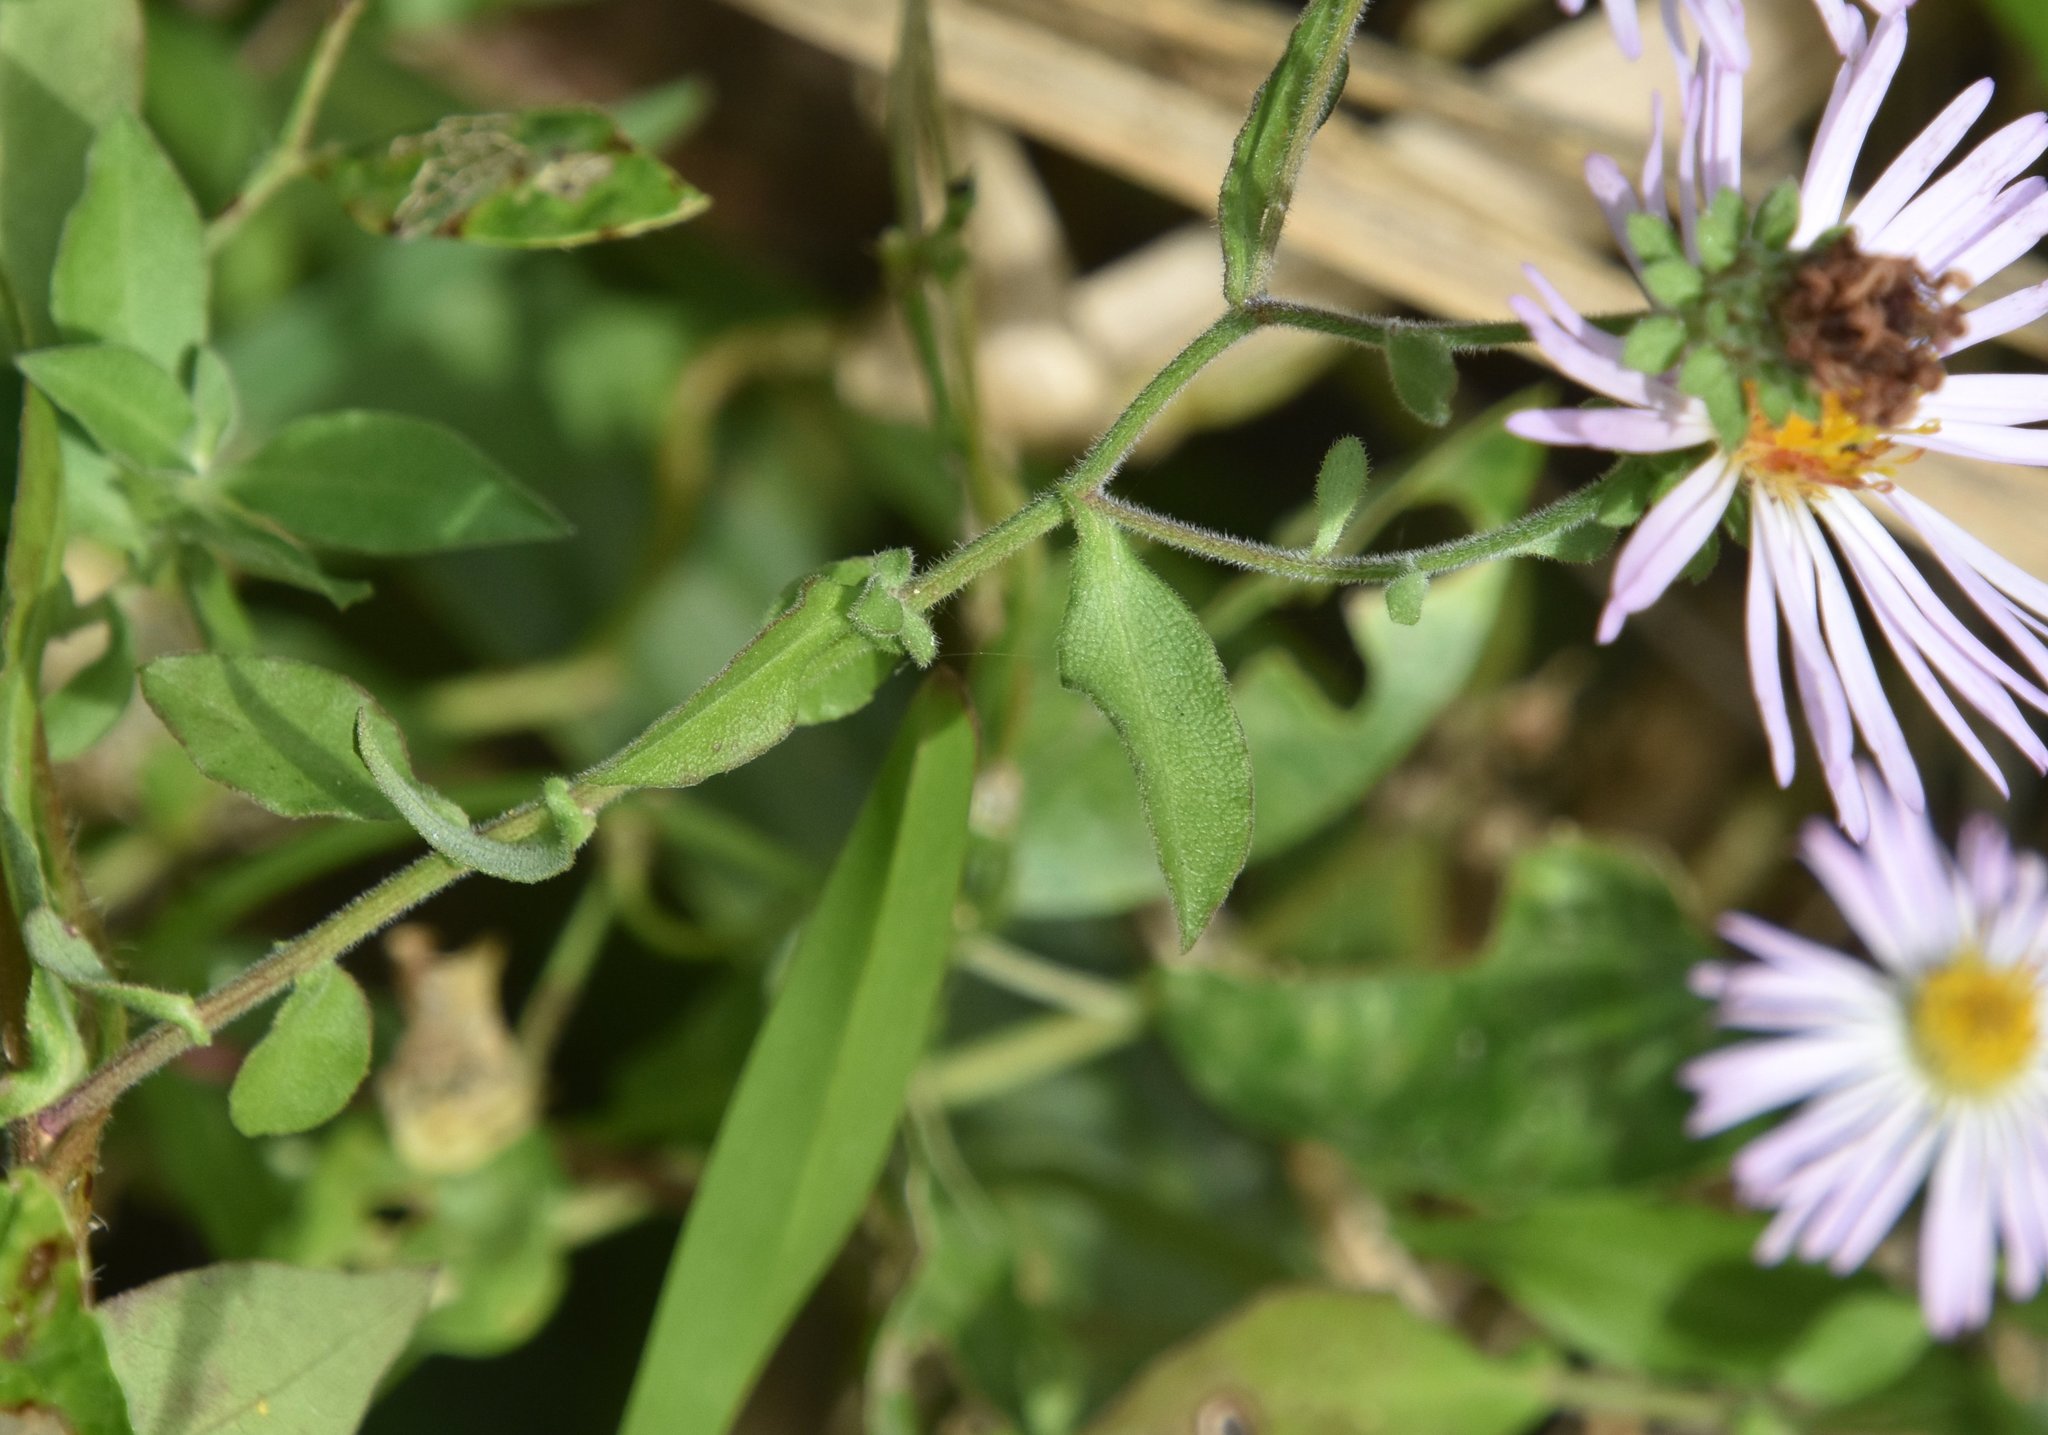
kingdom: Plantae
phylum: Tracheophyta
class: Magnoliopsida
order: Asterales
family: Asteraceae
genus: Ampelaster
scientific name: Ampelaster carolinianus
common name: Climbing aster
